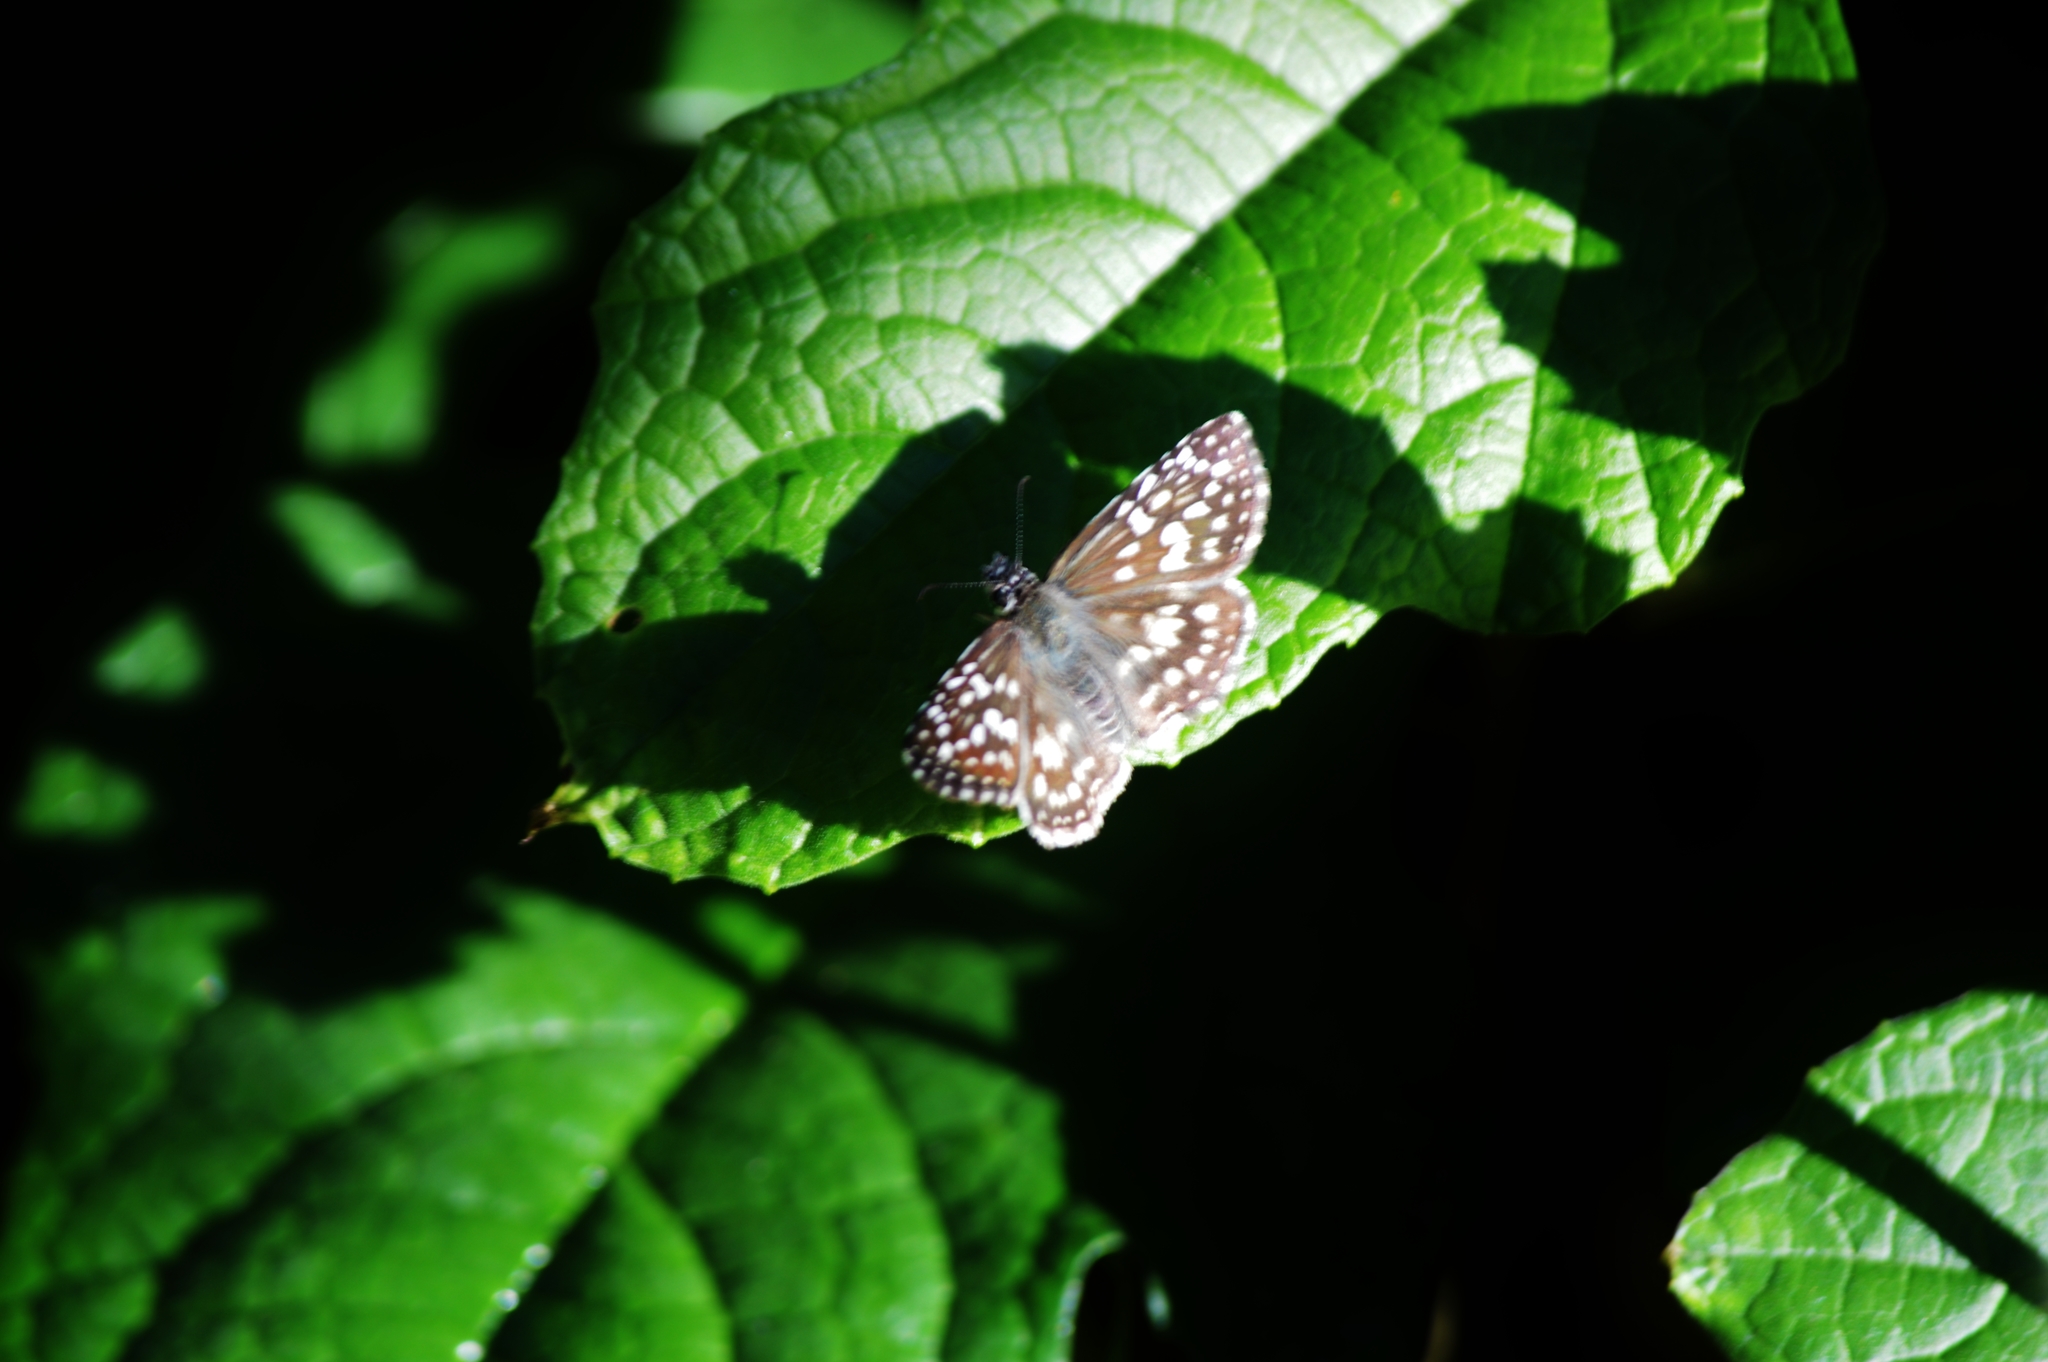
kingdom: Animalia
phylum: Arthropoda
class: Insecta
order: Lepidoptera
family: Hesperiidae
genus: Pyrgus
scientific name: Pyrgus oileus
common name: Tropical checkered-skipper
